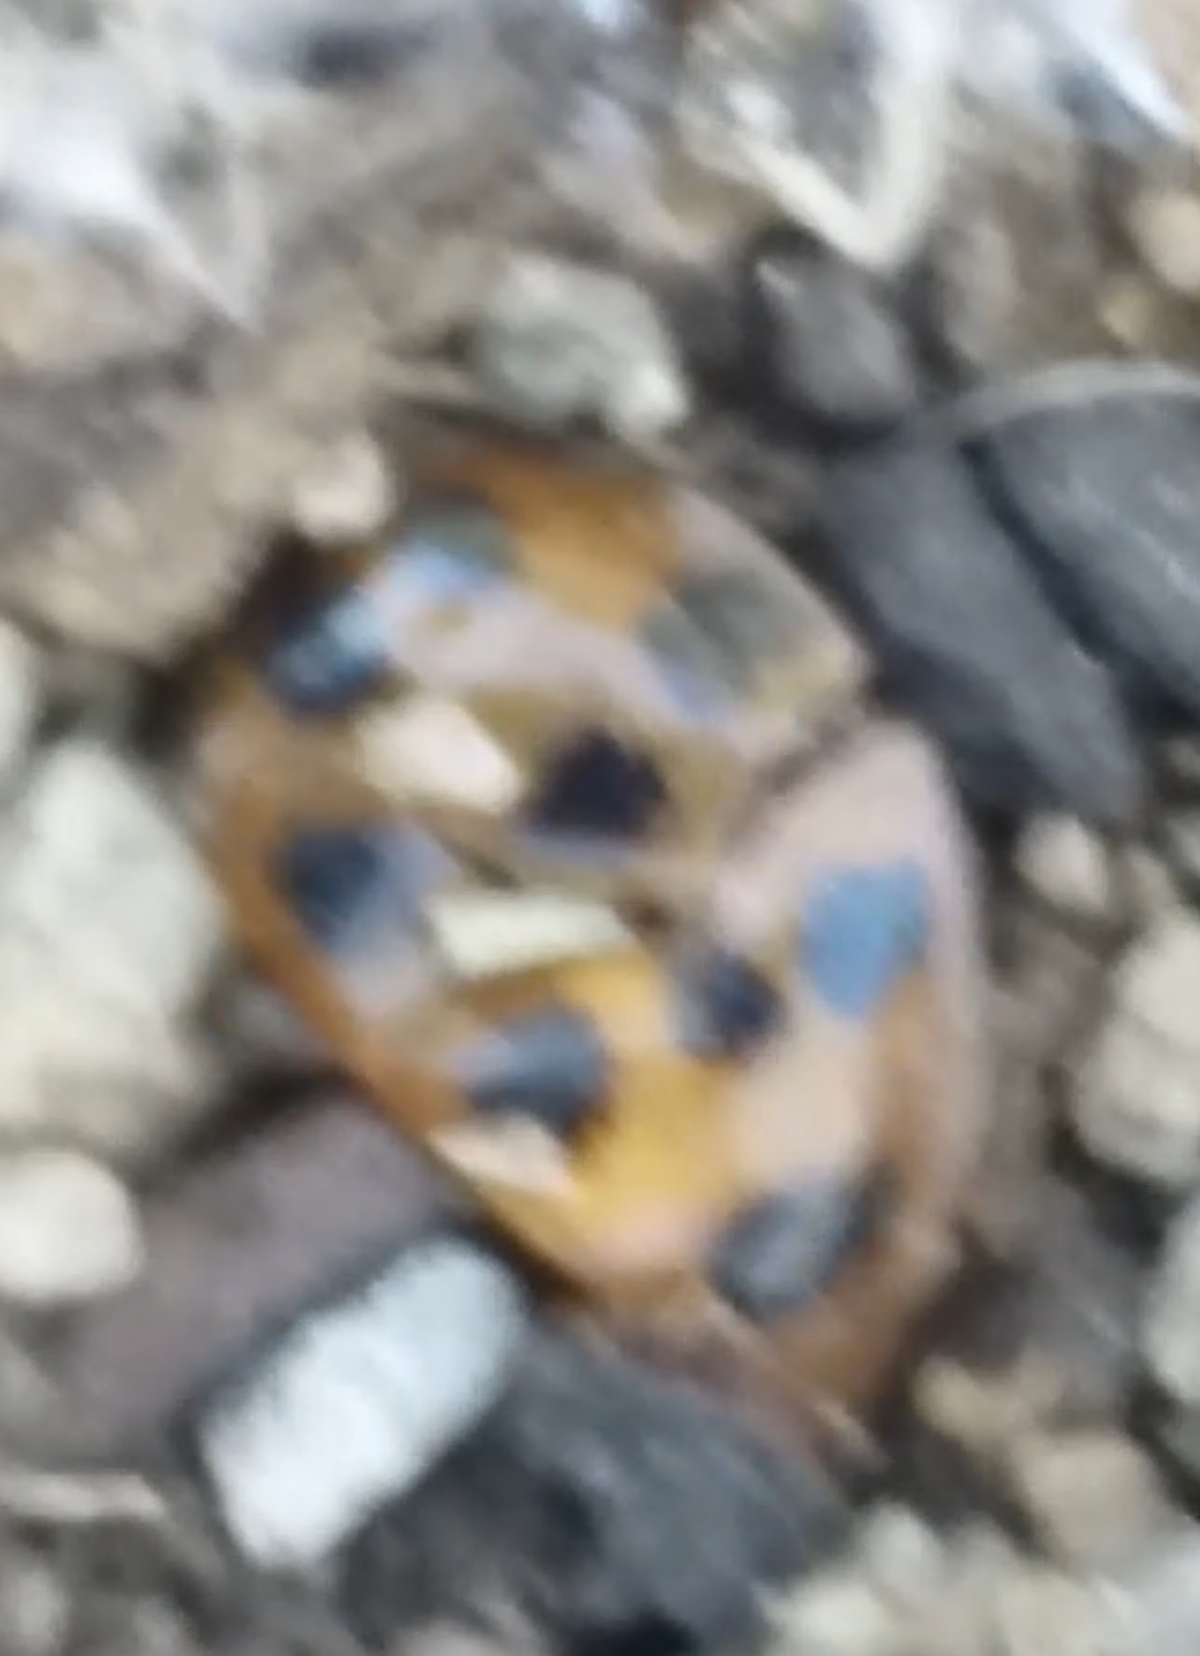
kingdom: Animalia
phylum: Arthropoda
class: Insecta
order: Coleoptera
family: Coccinellidae
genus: Harmonia
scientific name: Harmonia axyridis
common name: Harlequin ladybird
